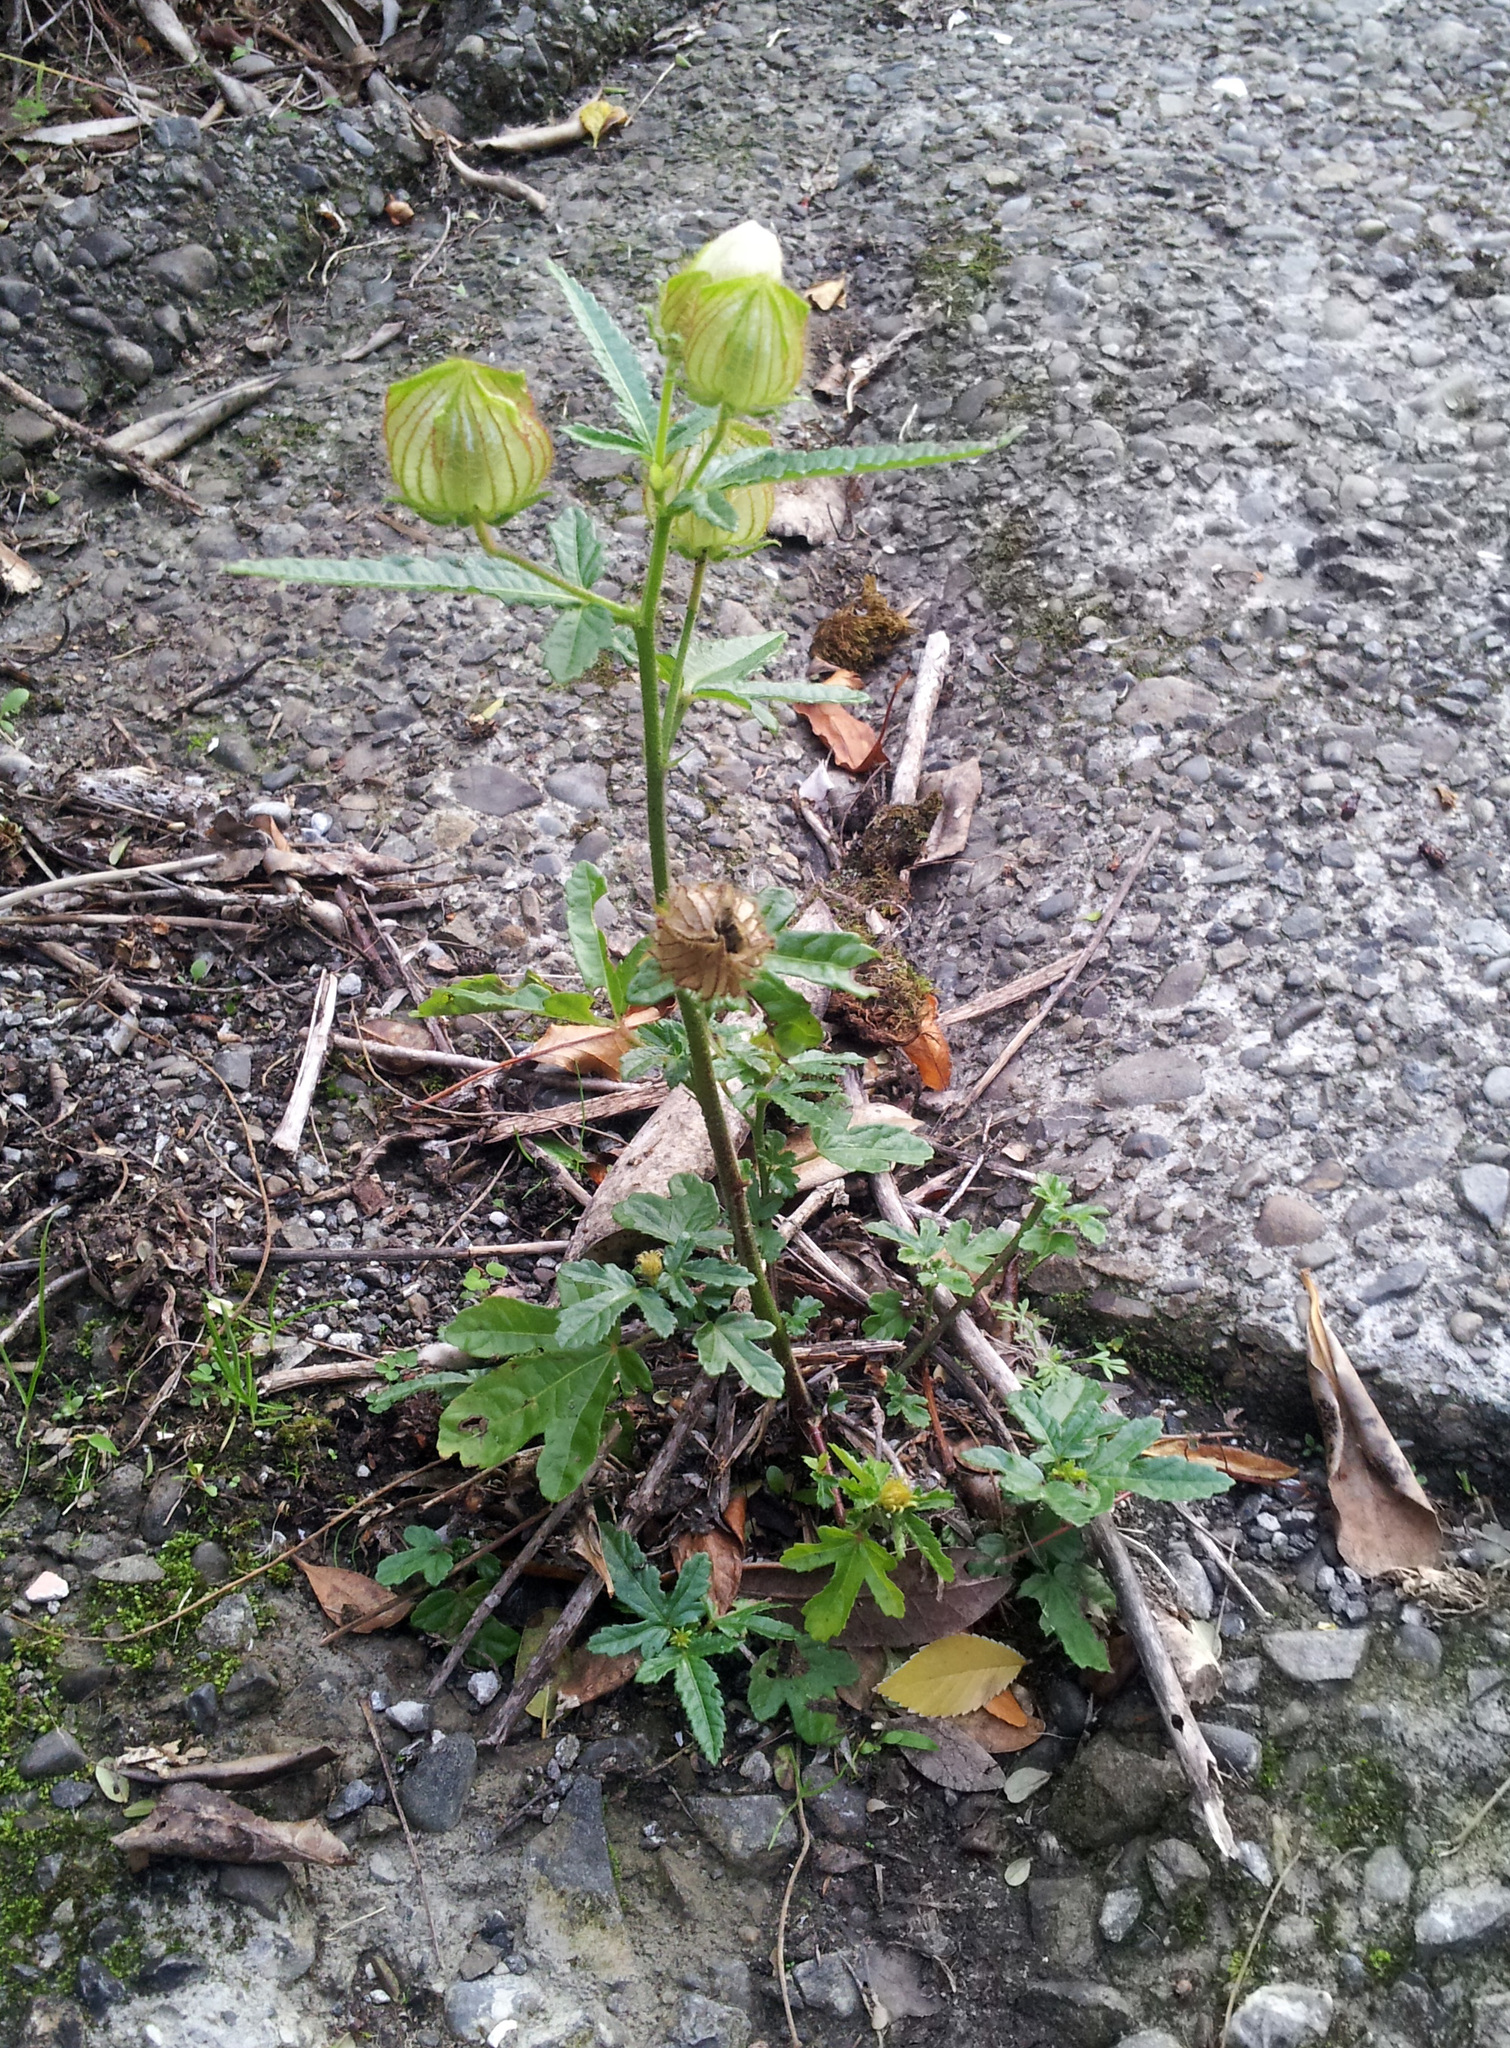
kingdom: Plantae
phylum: Tracheophyta
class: Magnoliopsida
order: Malvales
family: Malvaceae
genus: Hibiscus
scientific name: Hibiscus richardsonii
